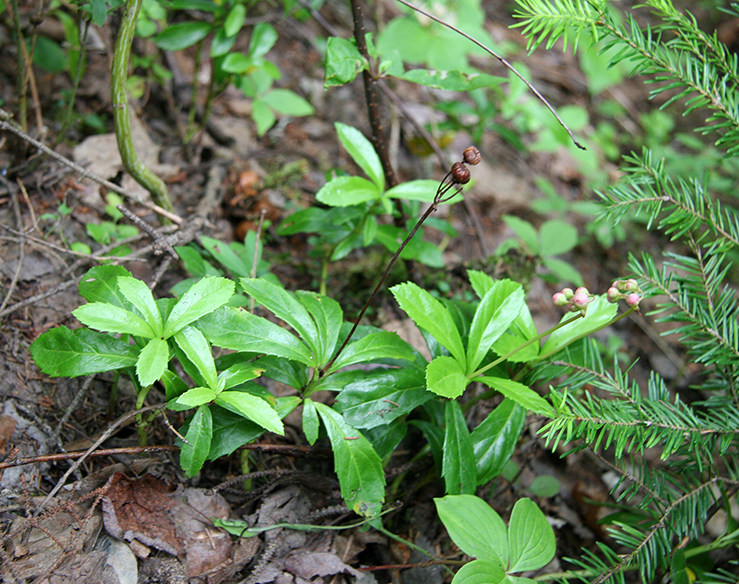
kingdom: Plantae
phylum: Tracheophyta
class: Magnoliopsida
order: Ericales
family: Ericaceae
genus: Chimaphila
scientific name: Chimaphila umbellata
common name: Pipsissewa
